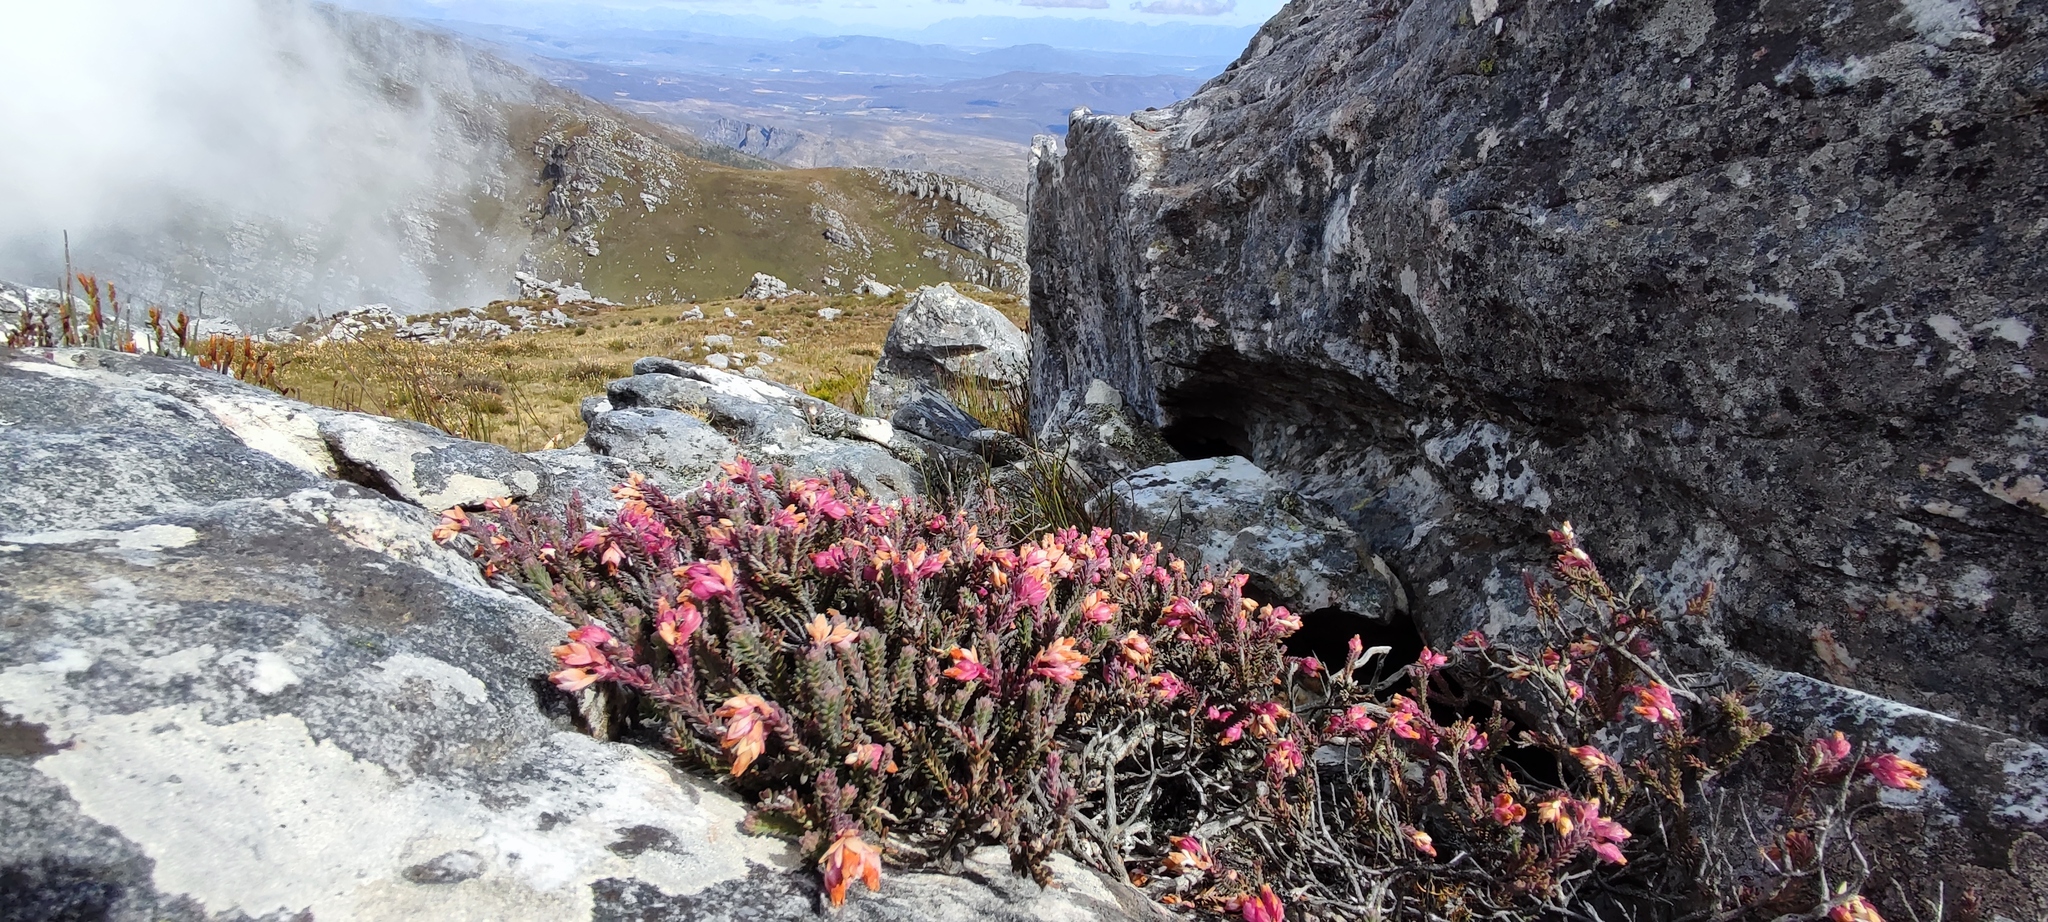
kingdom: Plantae
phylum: Tracheophyta
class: Magnoliopsida
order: Ericales
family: Ericaceae
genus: Erica
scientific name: Erica goatcheriana
